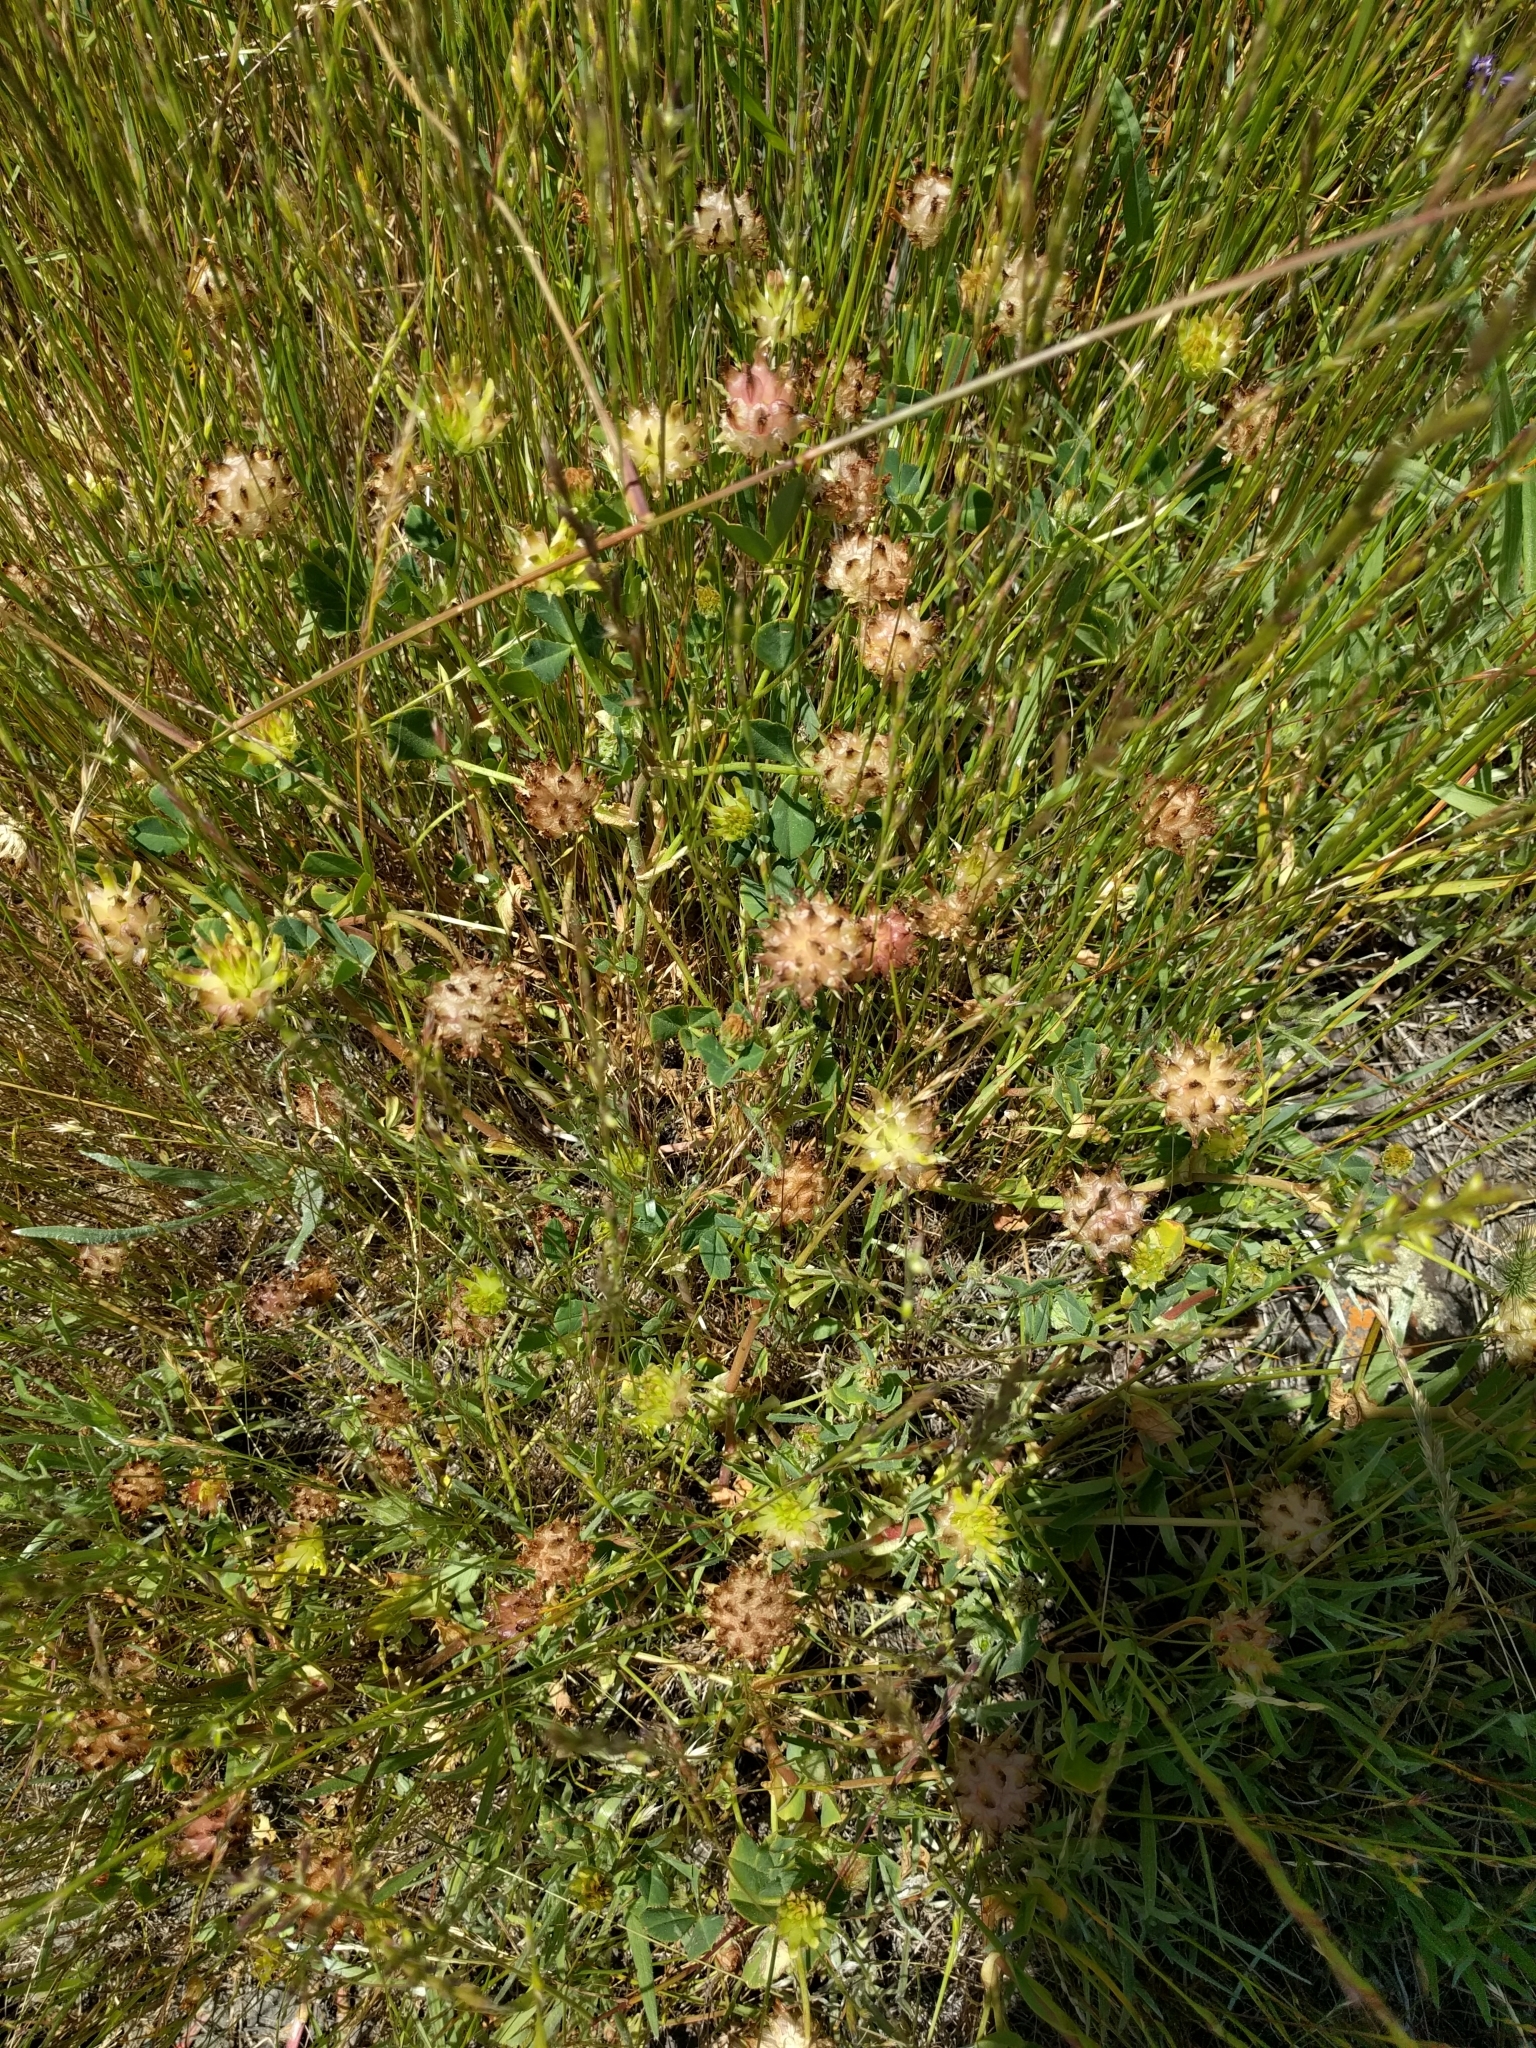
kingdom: Plantae
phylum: Tracheophyta
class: Magnoliopsida
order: Fabales
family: Fabaceae
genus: Trifolium
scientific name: Trifolium fucatum
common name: Puff clover
